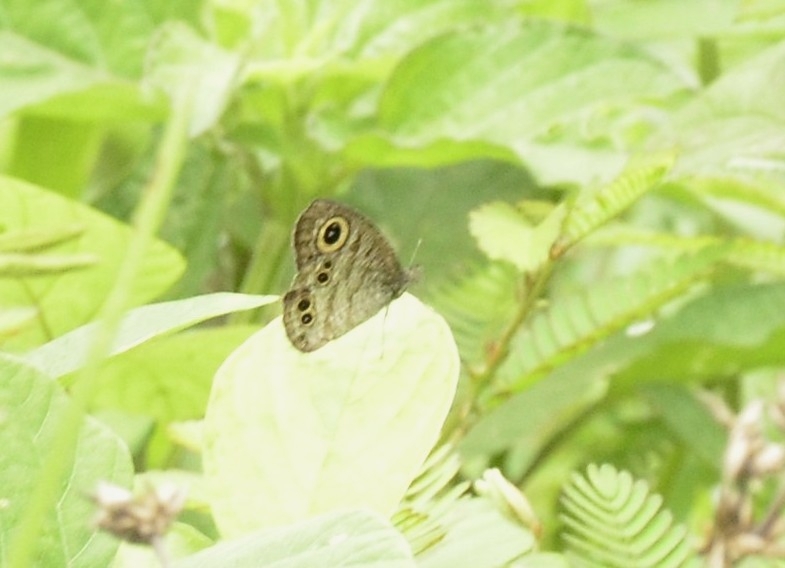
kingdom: Animalia
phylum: Arthropoda
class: Insecta
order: Lepidoptera
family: Nymphalidae
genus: Ypthima
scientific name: Ypthima baldus
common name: Common five-ring
